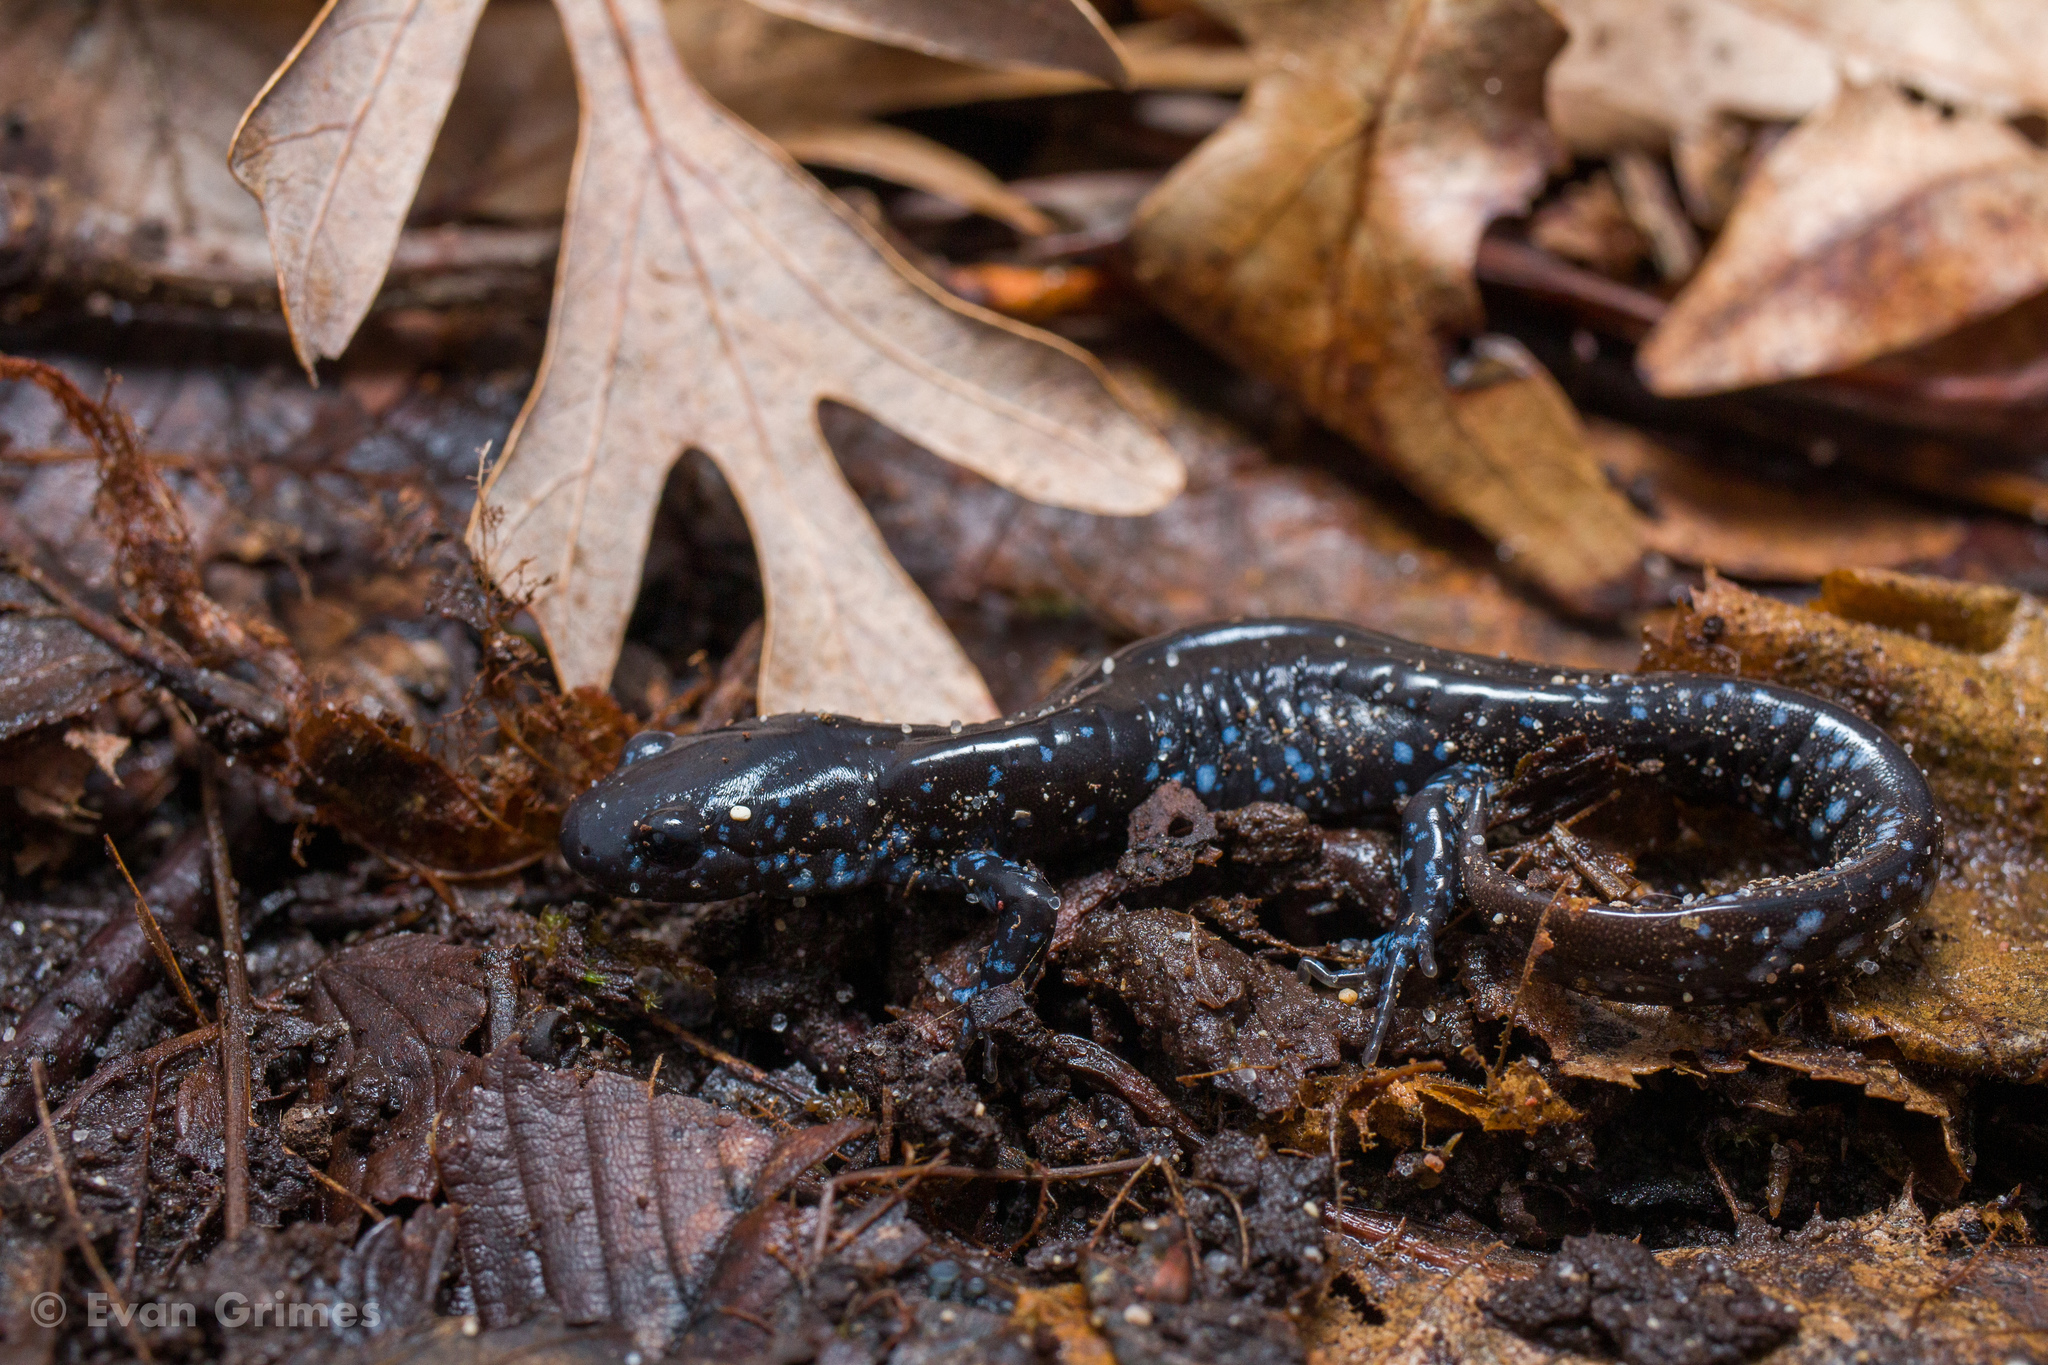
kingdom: Animalia
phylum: Chordata
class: Amphibia
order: Caudata
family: Ambystomatidae
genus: Ambystoma
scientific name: Ambystoma laterale
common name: Blue-spotted salamander
